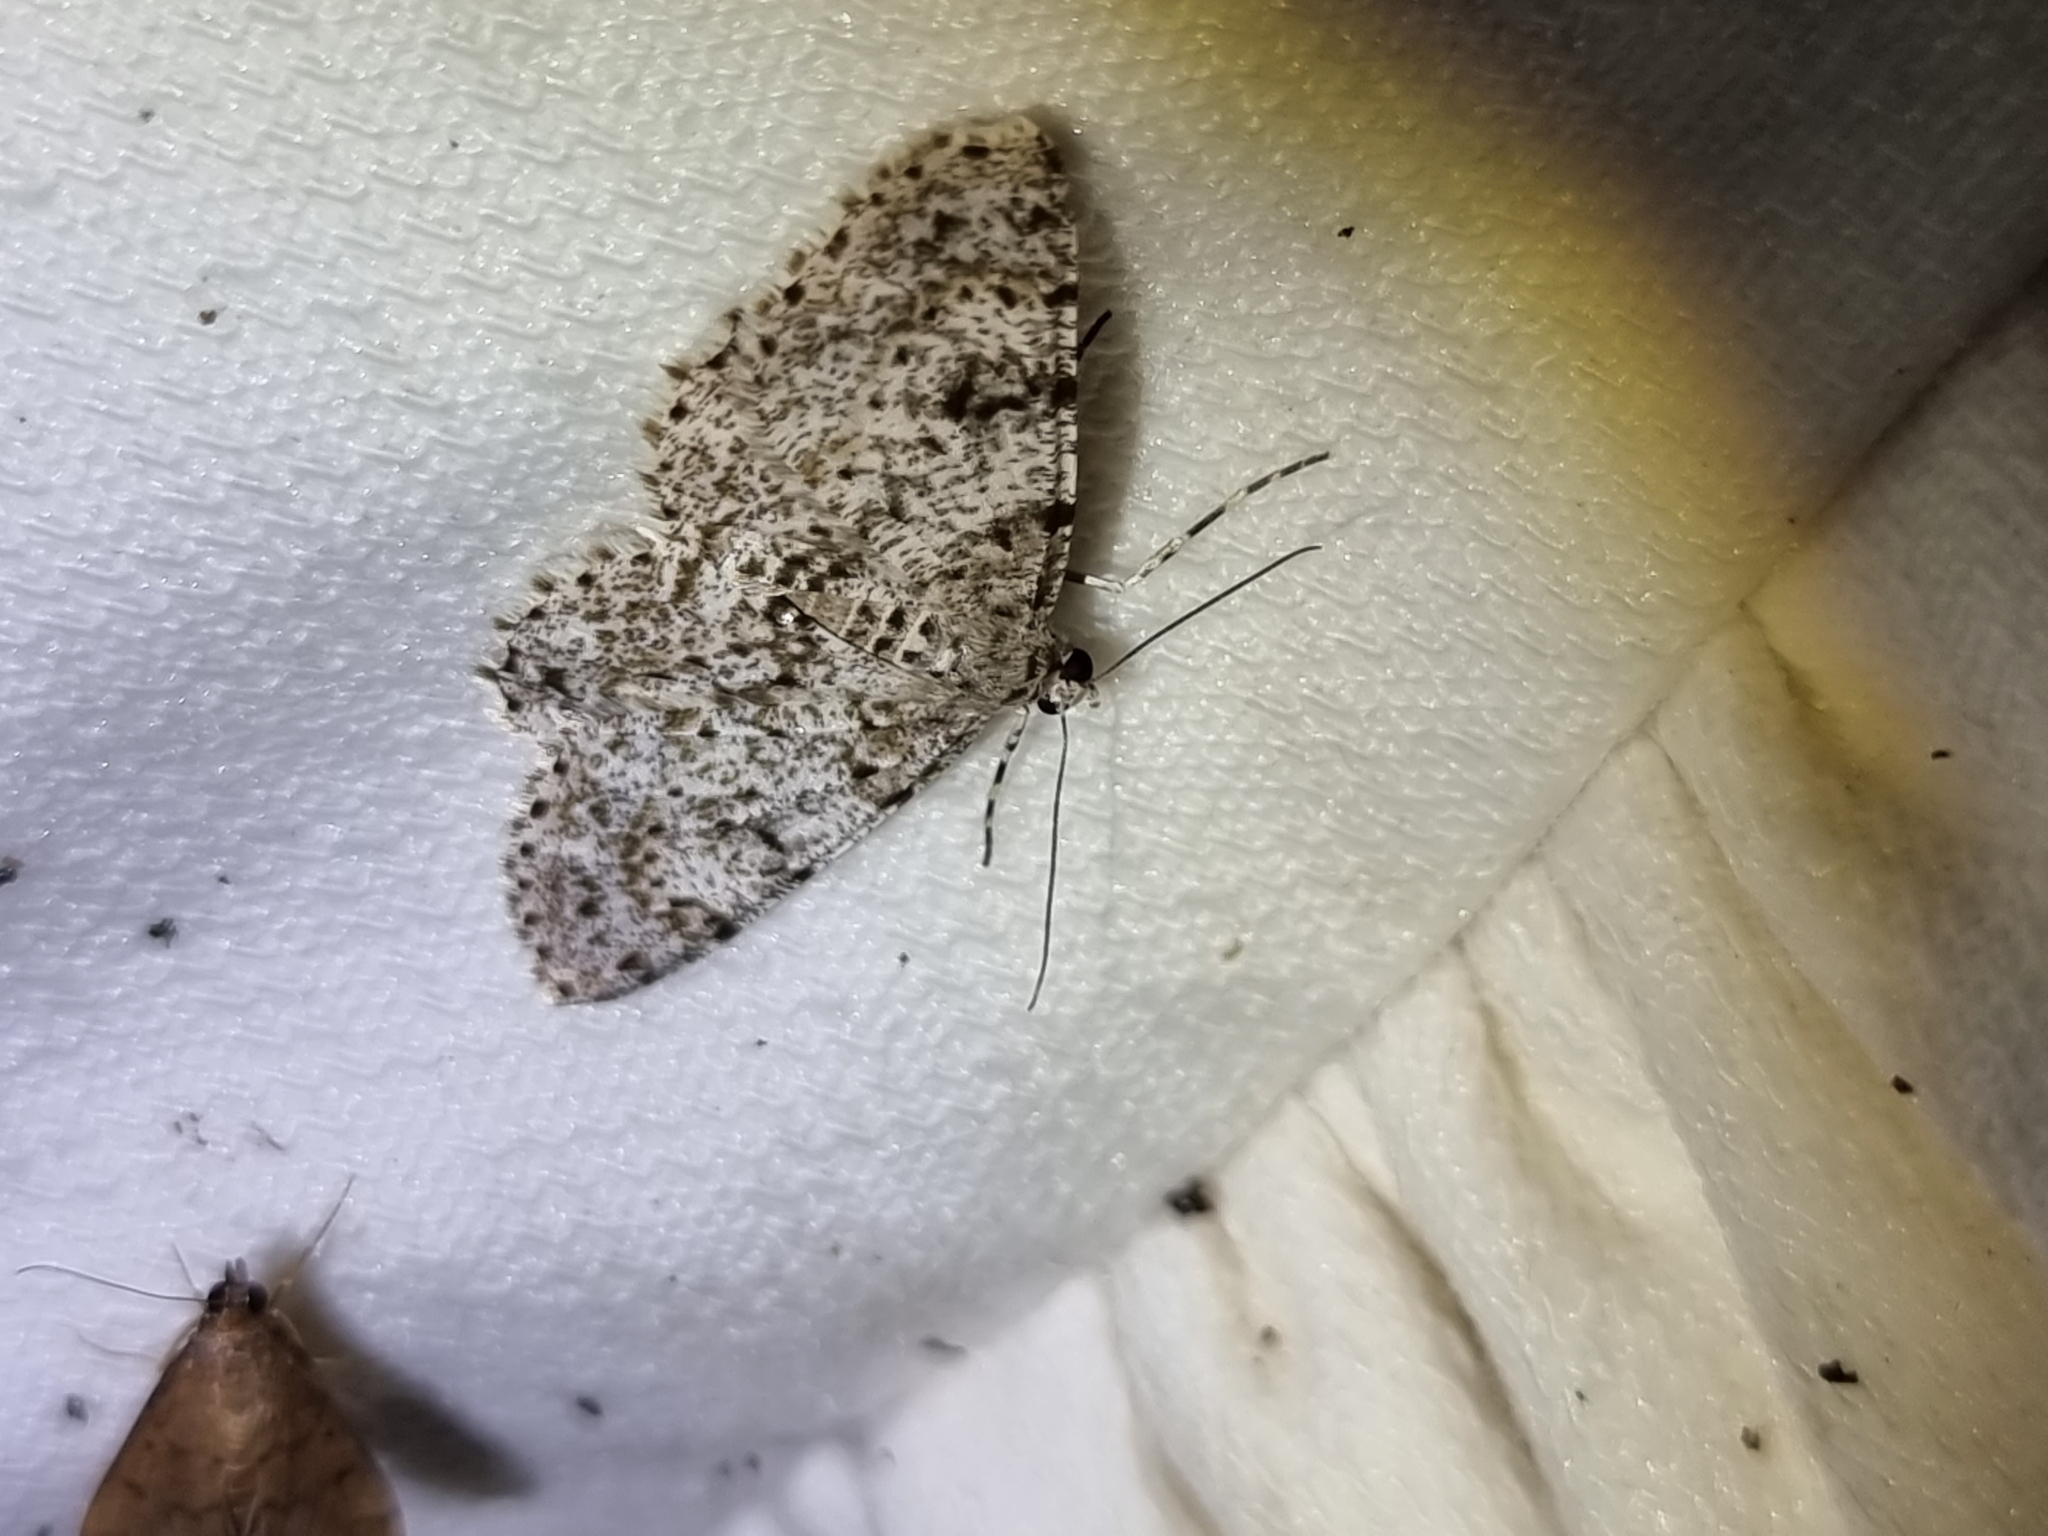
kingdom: Animalia
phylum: Arthropoda
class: Insecta
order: Lepidoptera
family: Geometridae
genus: Thallogama
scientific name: Thallogama corticola
